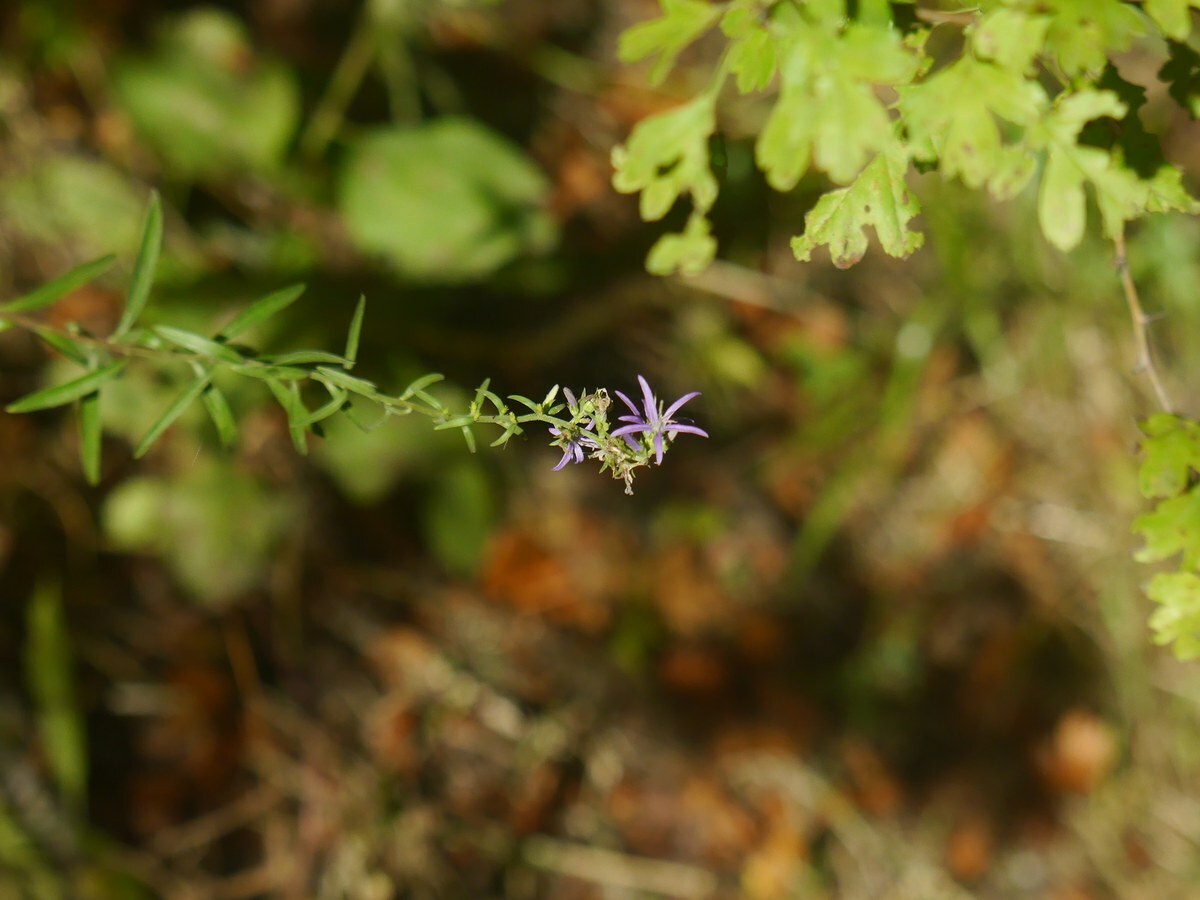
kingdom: Plantae
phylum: Tracheophyta
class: Magnoliopsida
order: Asterales
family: Campanulaceae
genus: Asyneuma
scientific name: Asyneuma canescens
